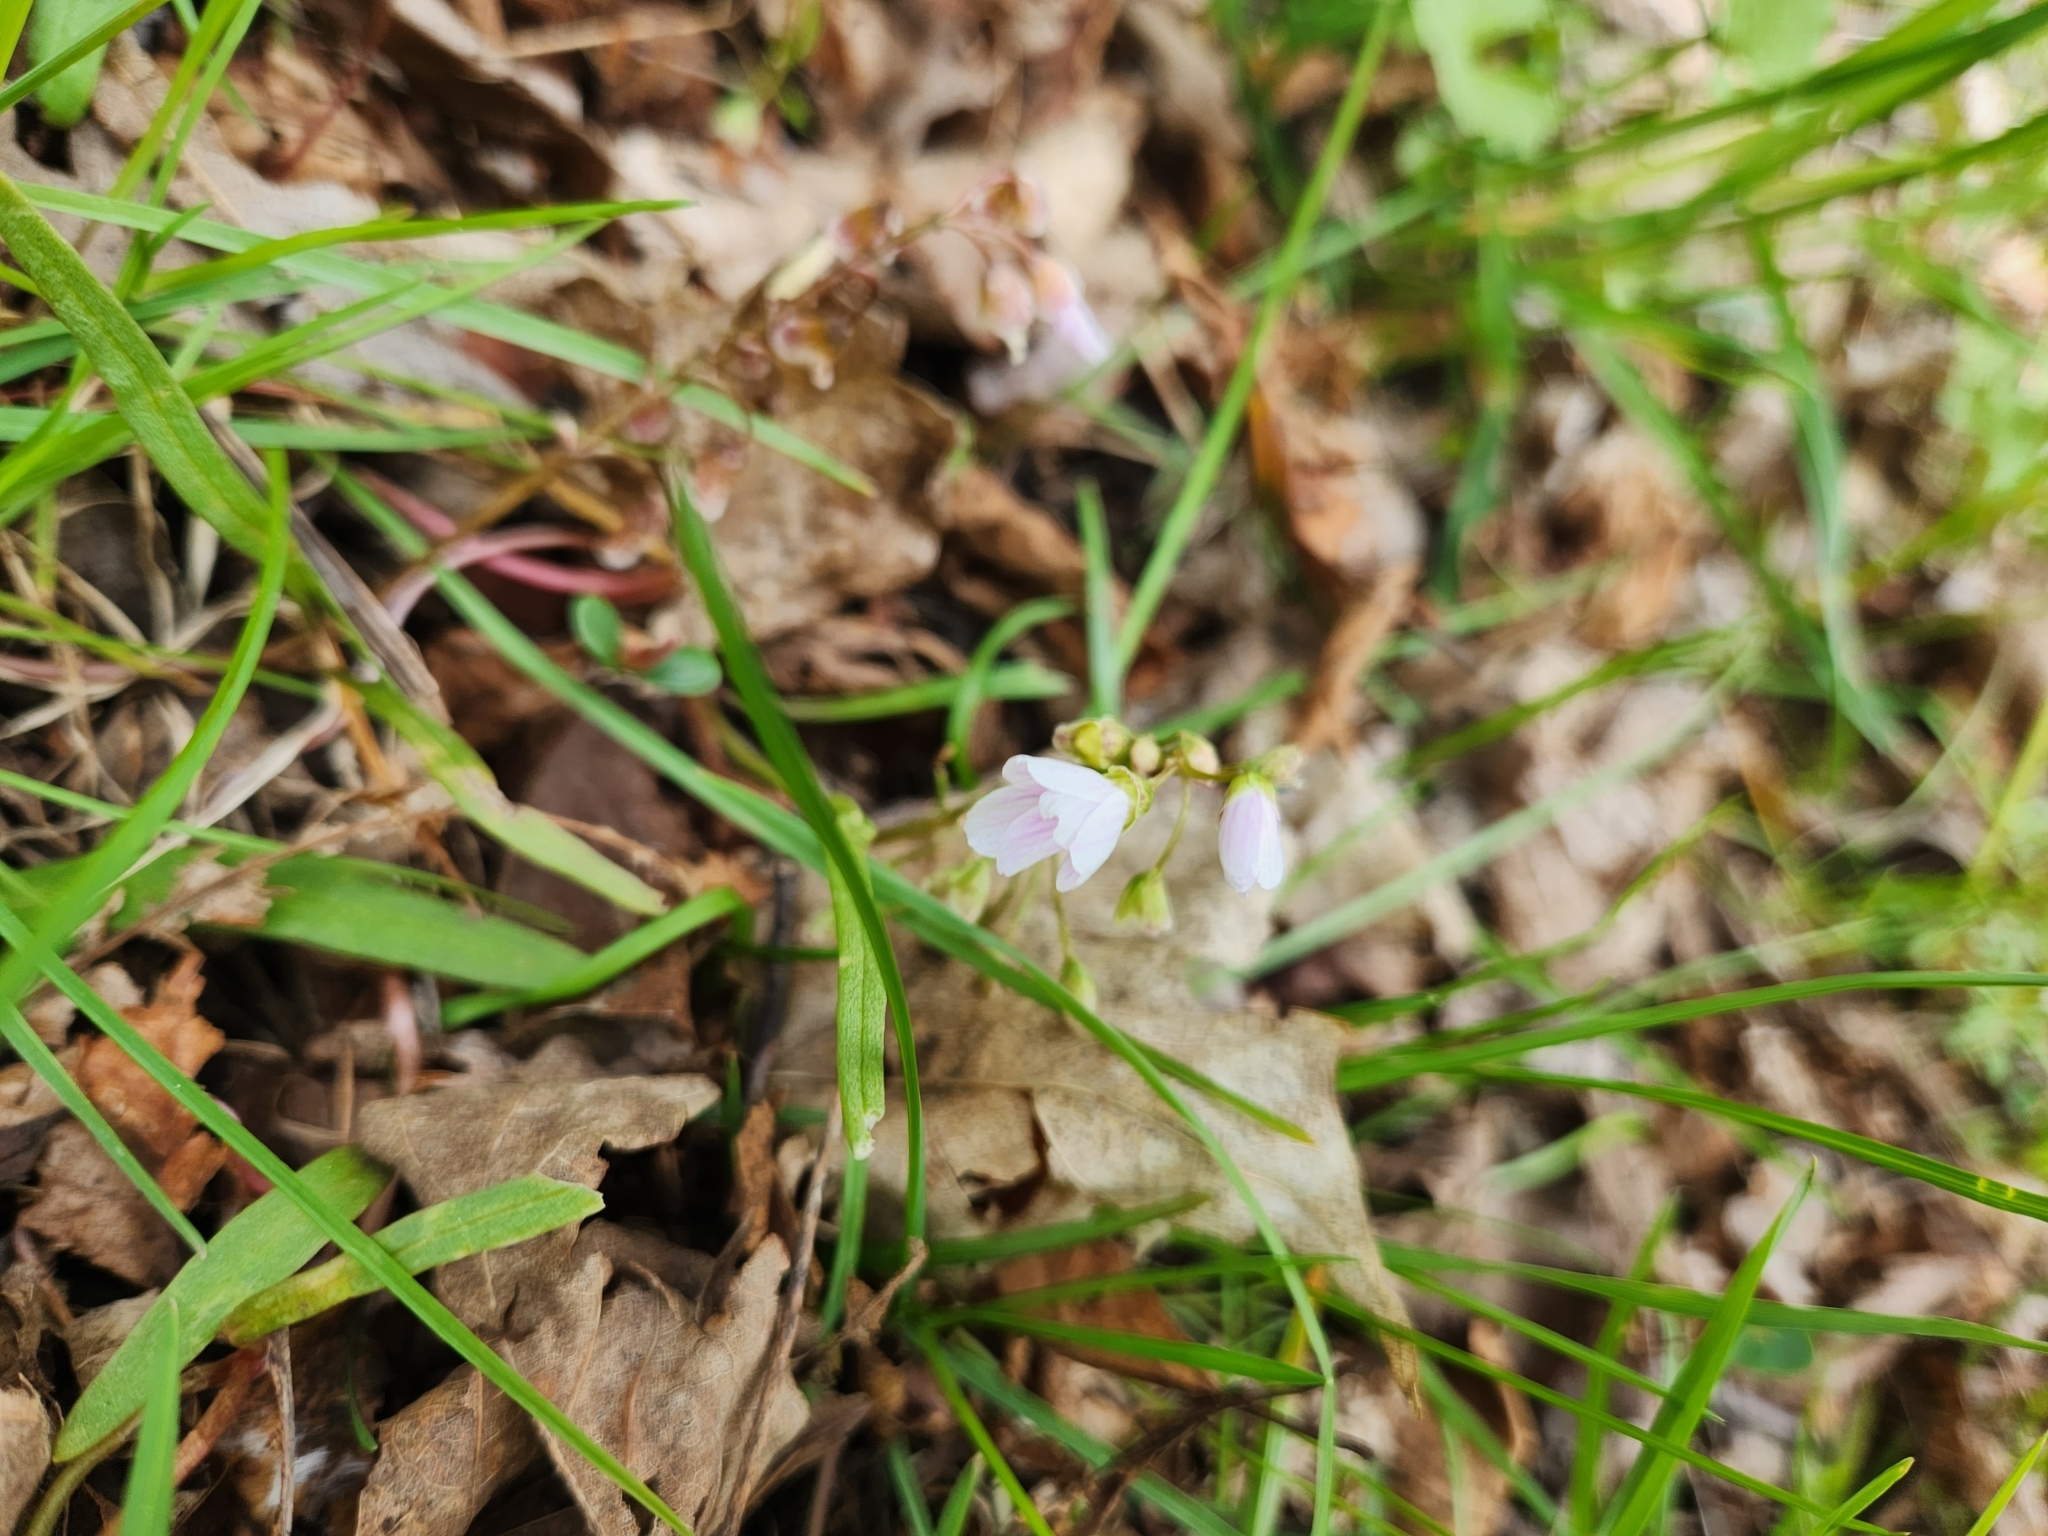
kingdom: Plantae
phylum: Tracheophyta
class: Magnoliopsida
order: Caryophyllales
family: Montiaceae
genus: Claytonia
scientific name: Claytonia virginica
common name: Virginia springbeauty
